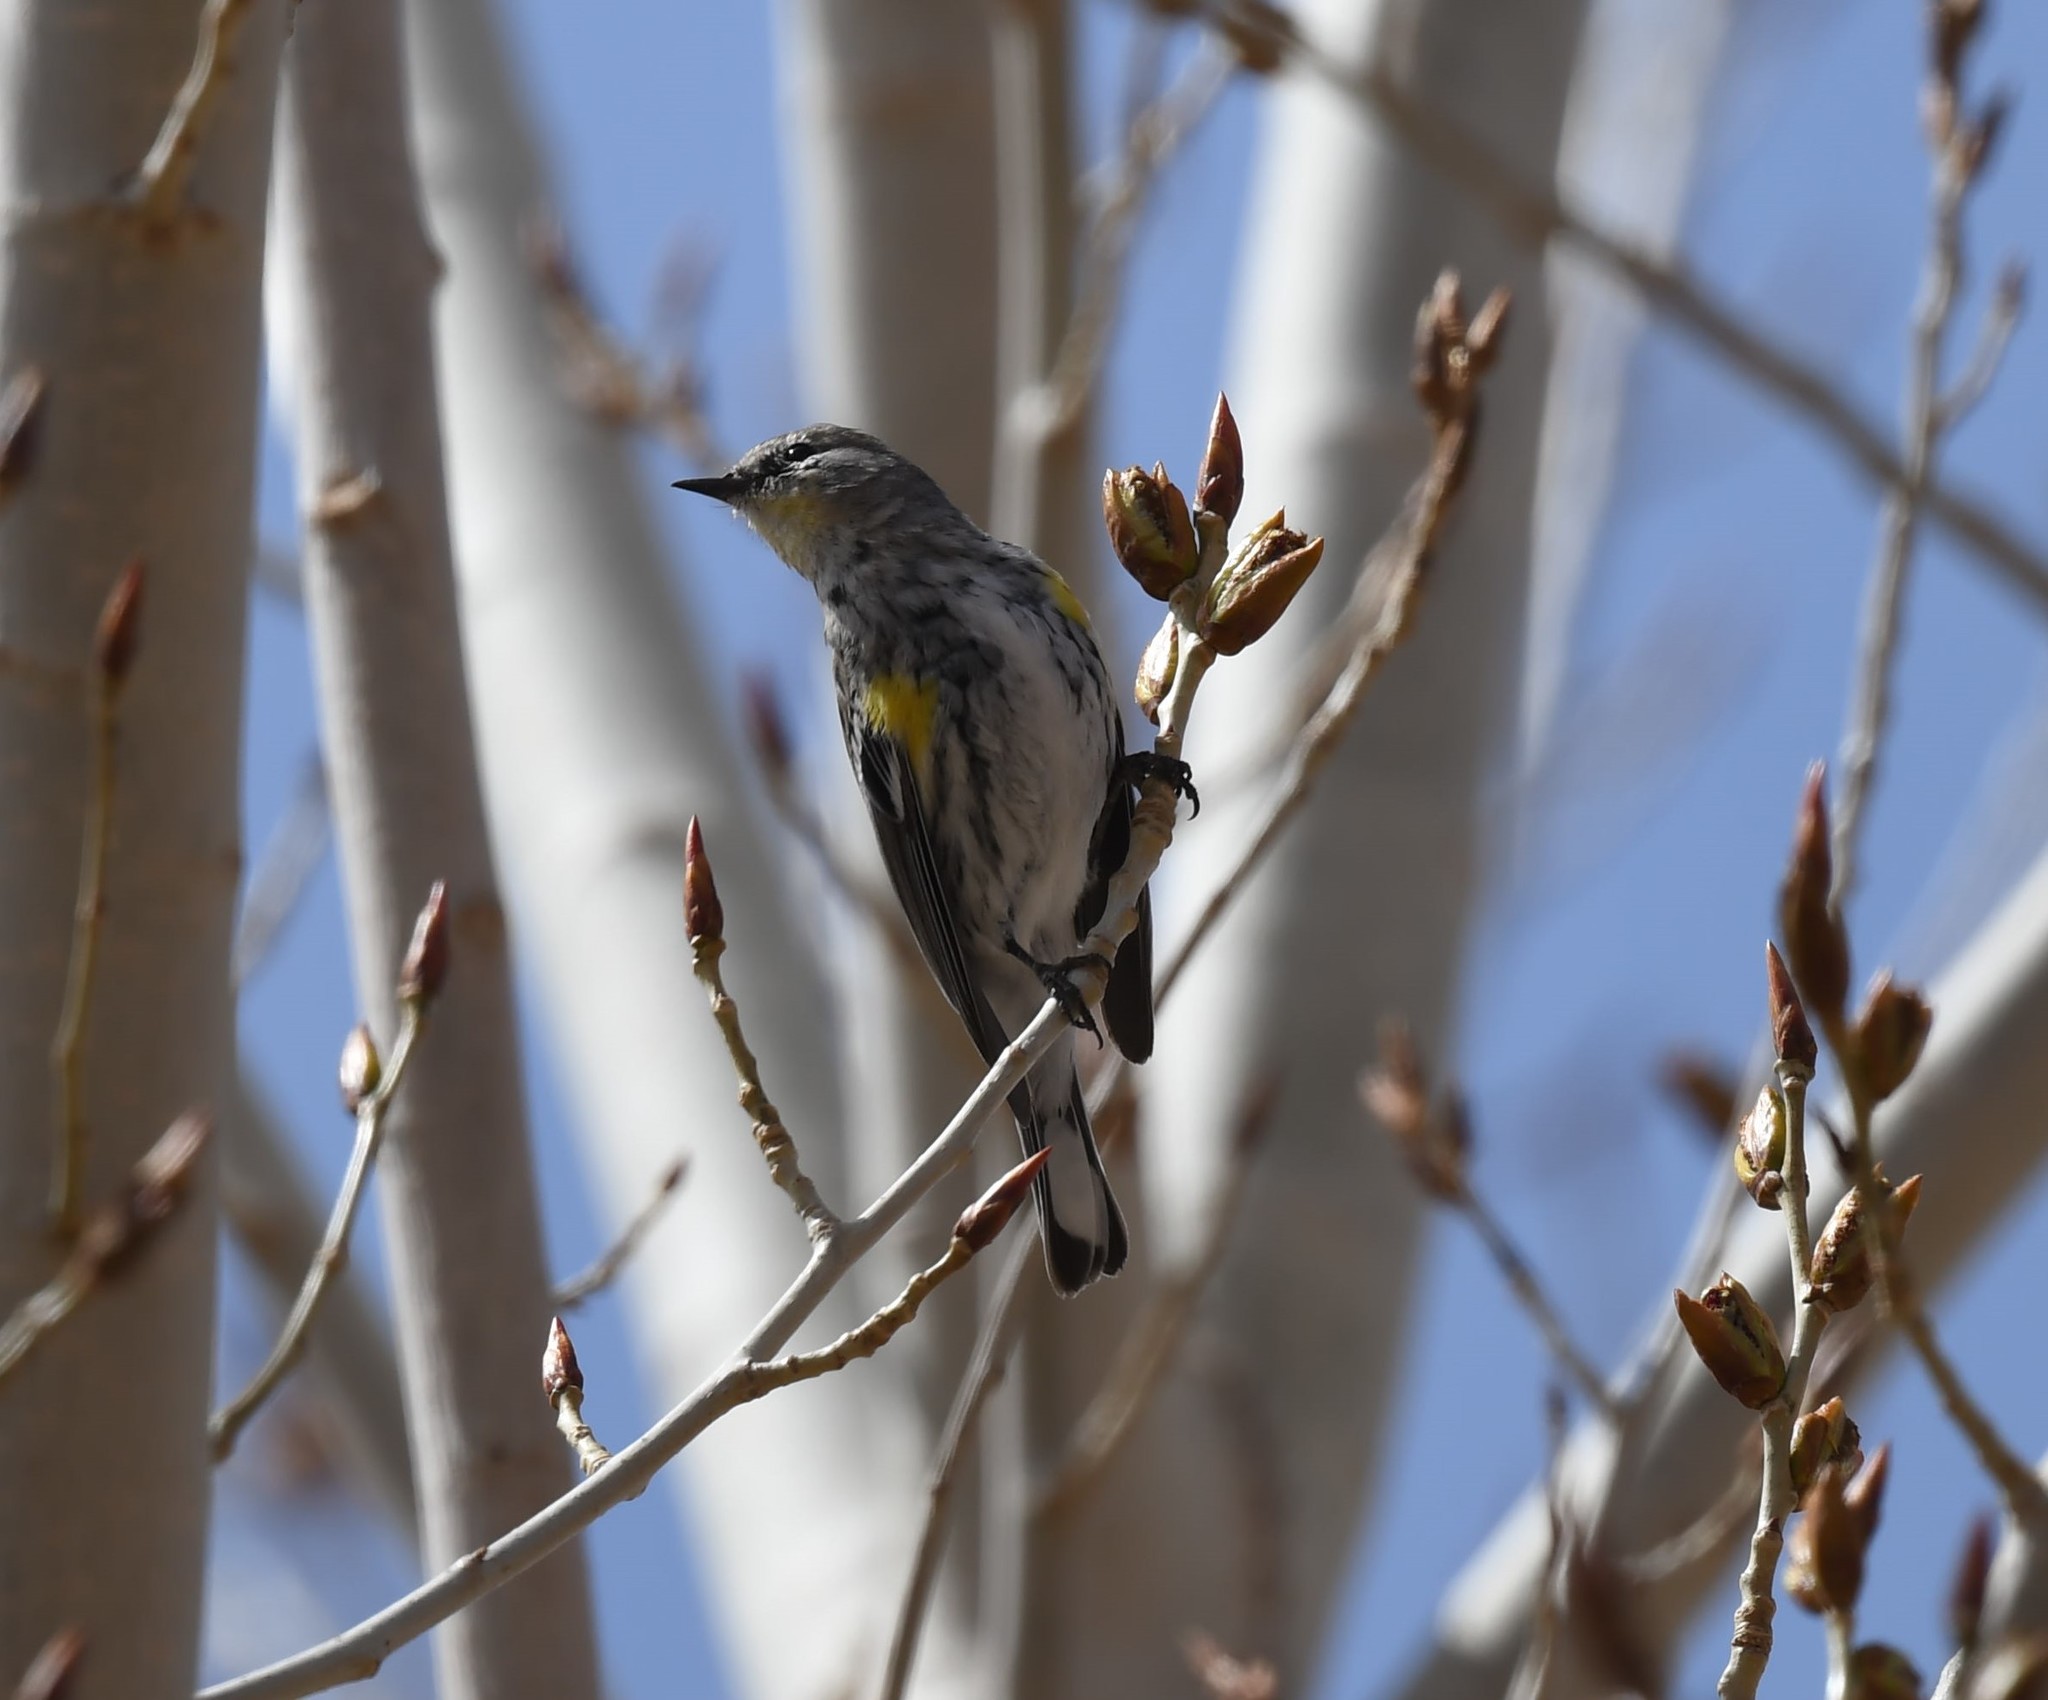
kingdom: Animalia
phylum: Chordata
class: Aves
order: Passeriformes
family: Parulidae
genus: Setophaga
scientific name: Setophaga coronata
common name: Myrtle warbler
